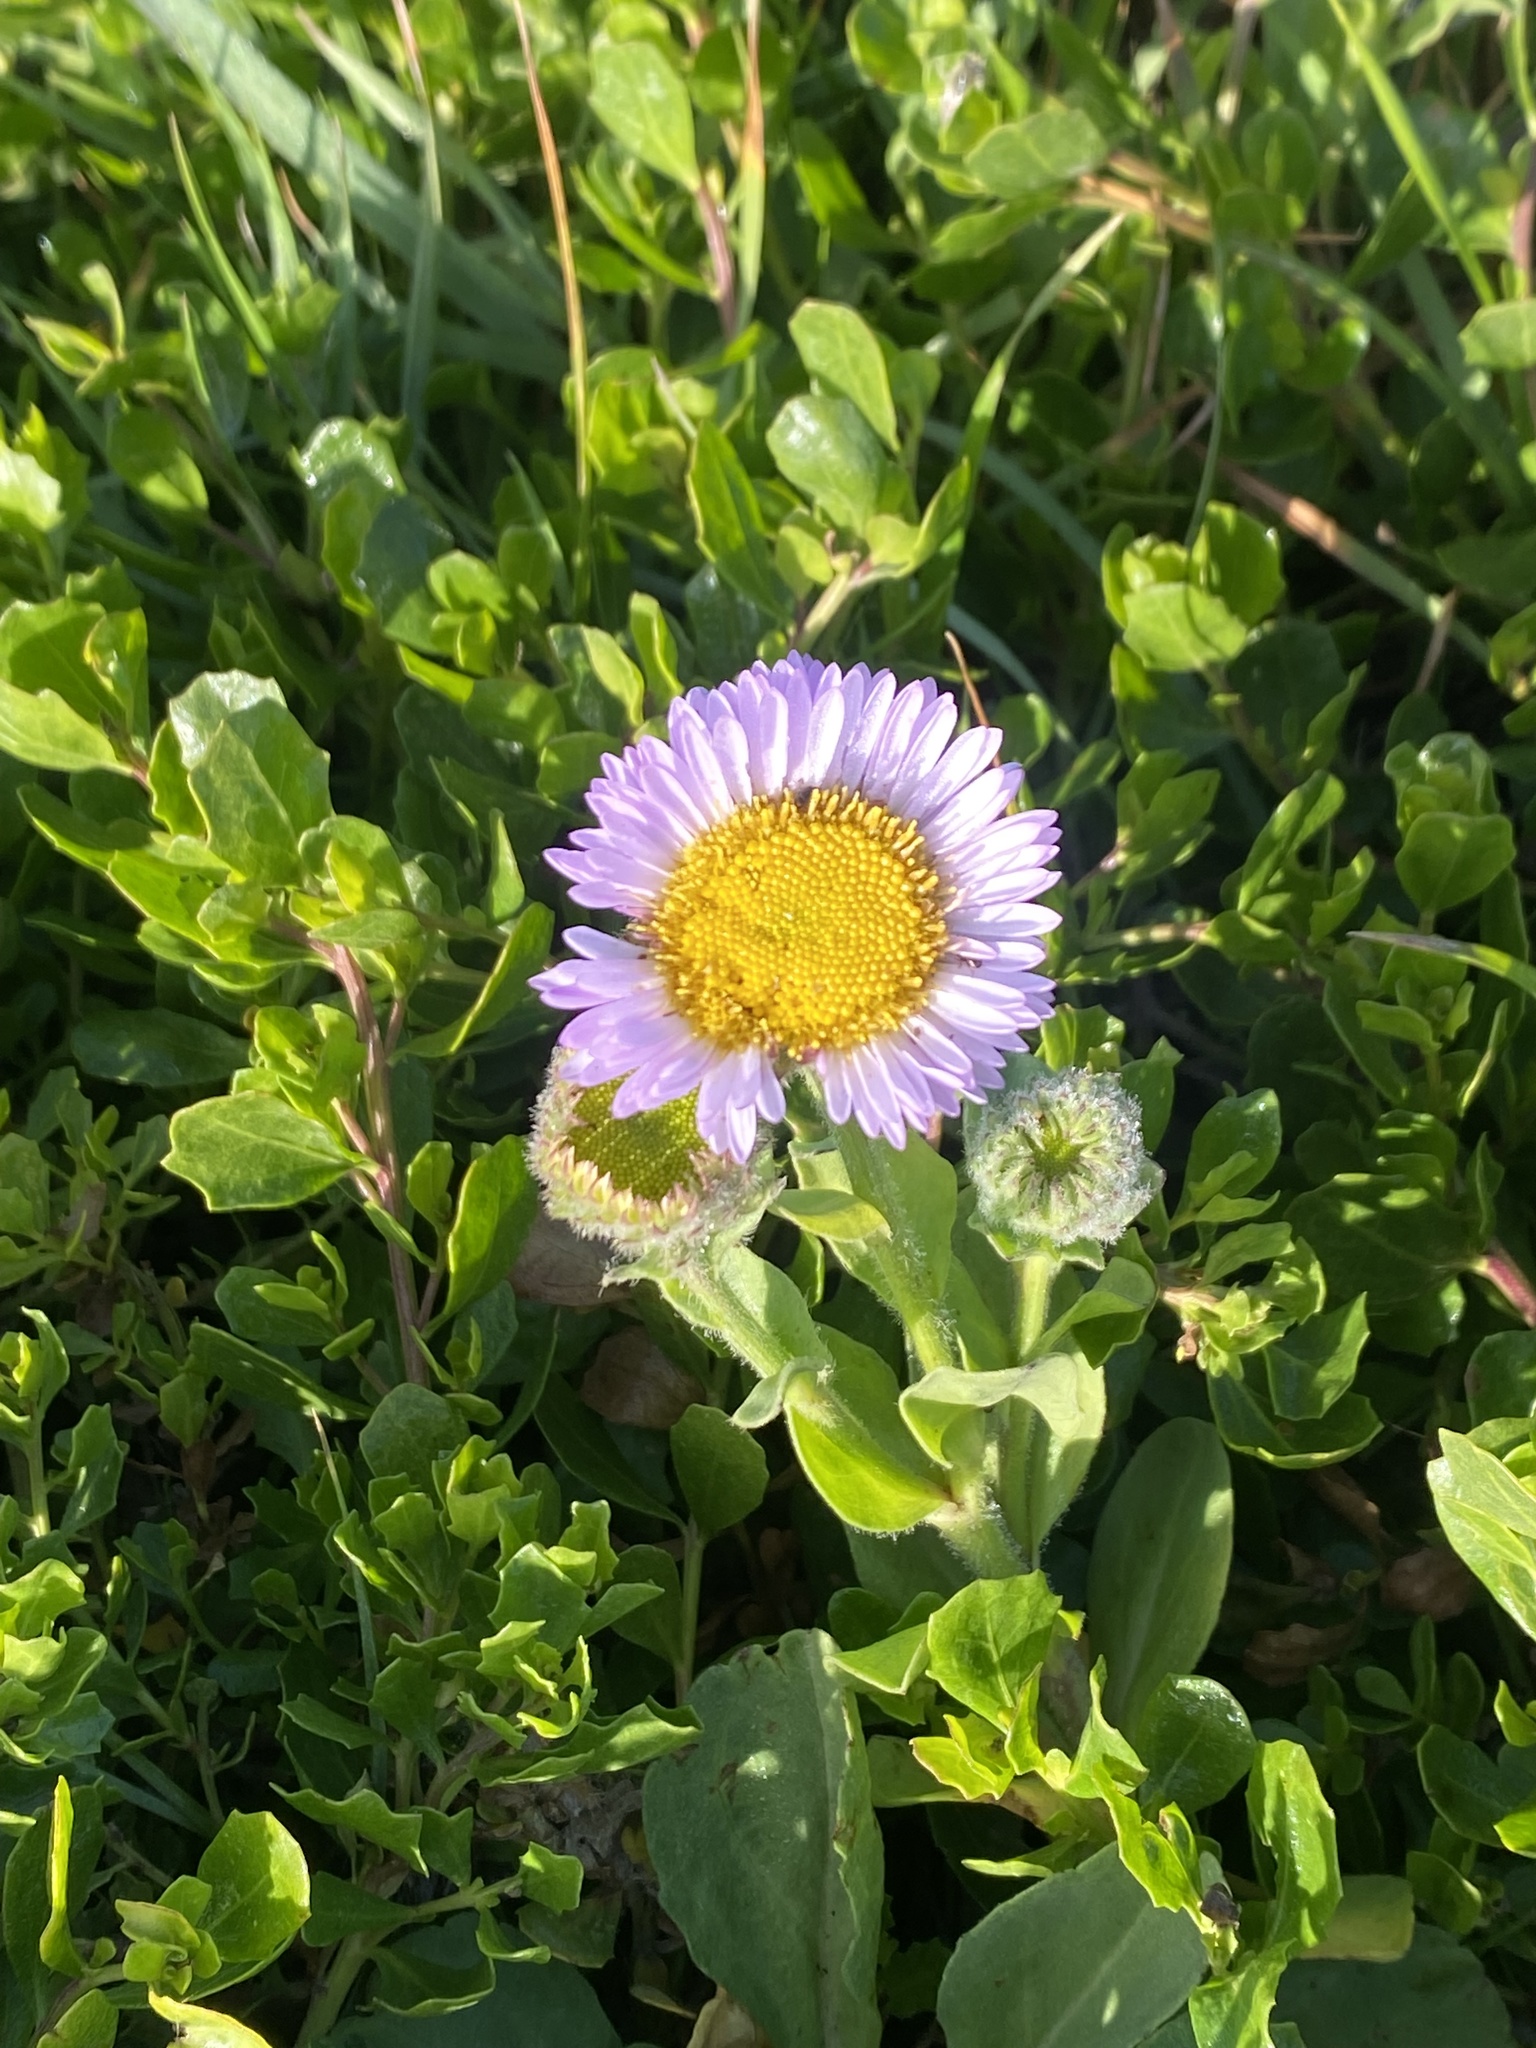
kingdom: Plantae
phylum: Tracheophyta
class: Magnoliopsida
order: Asterales
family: Asteraceae
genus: Erigeron
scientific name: Erigeron glaucus
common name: Seaside daisy
